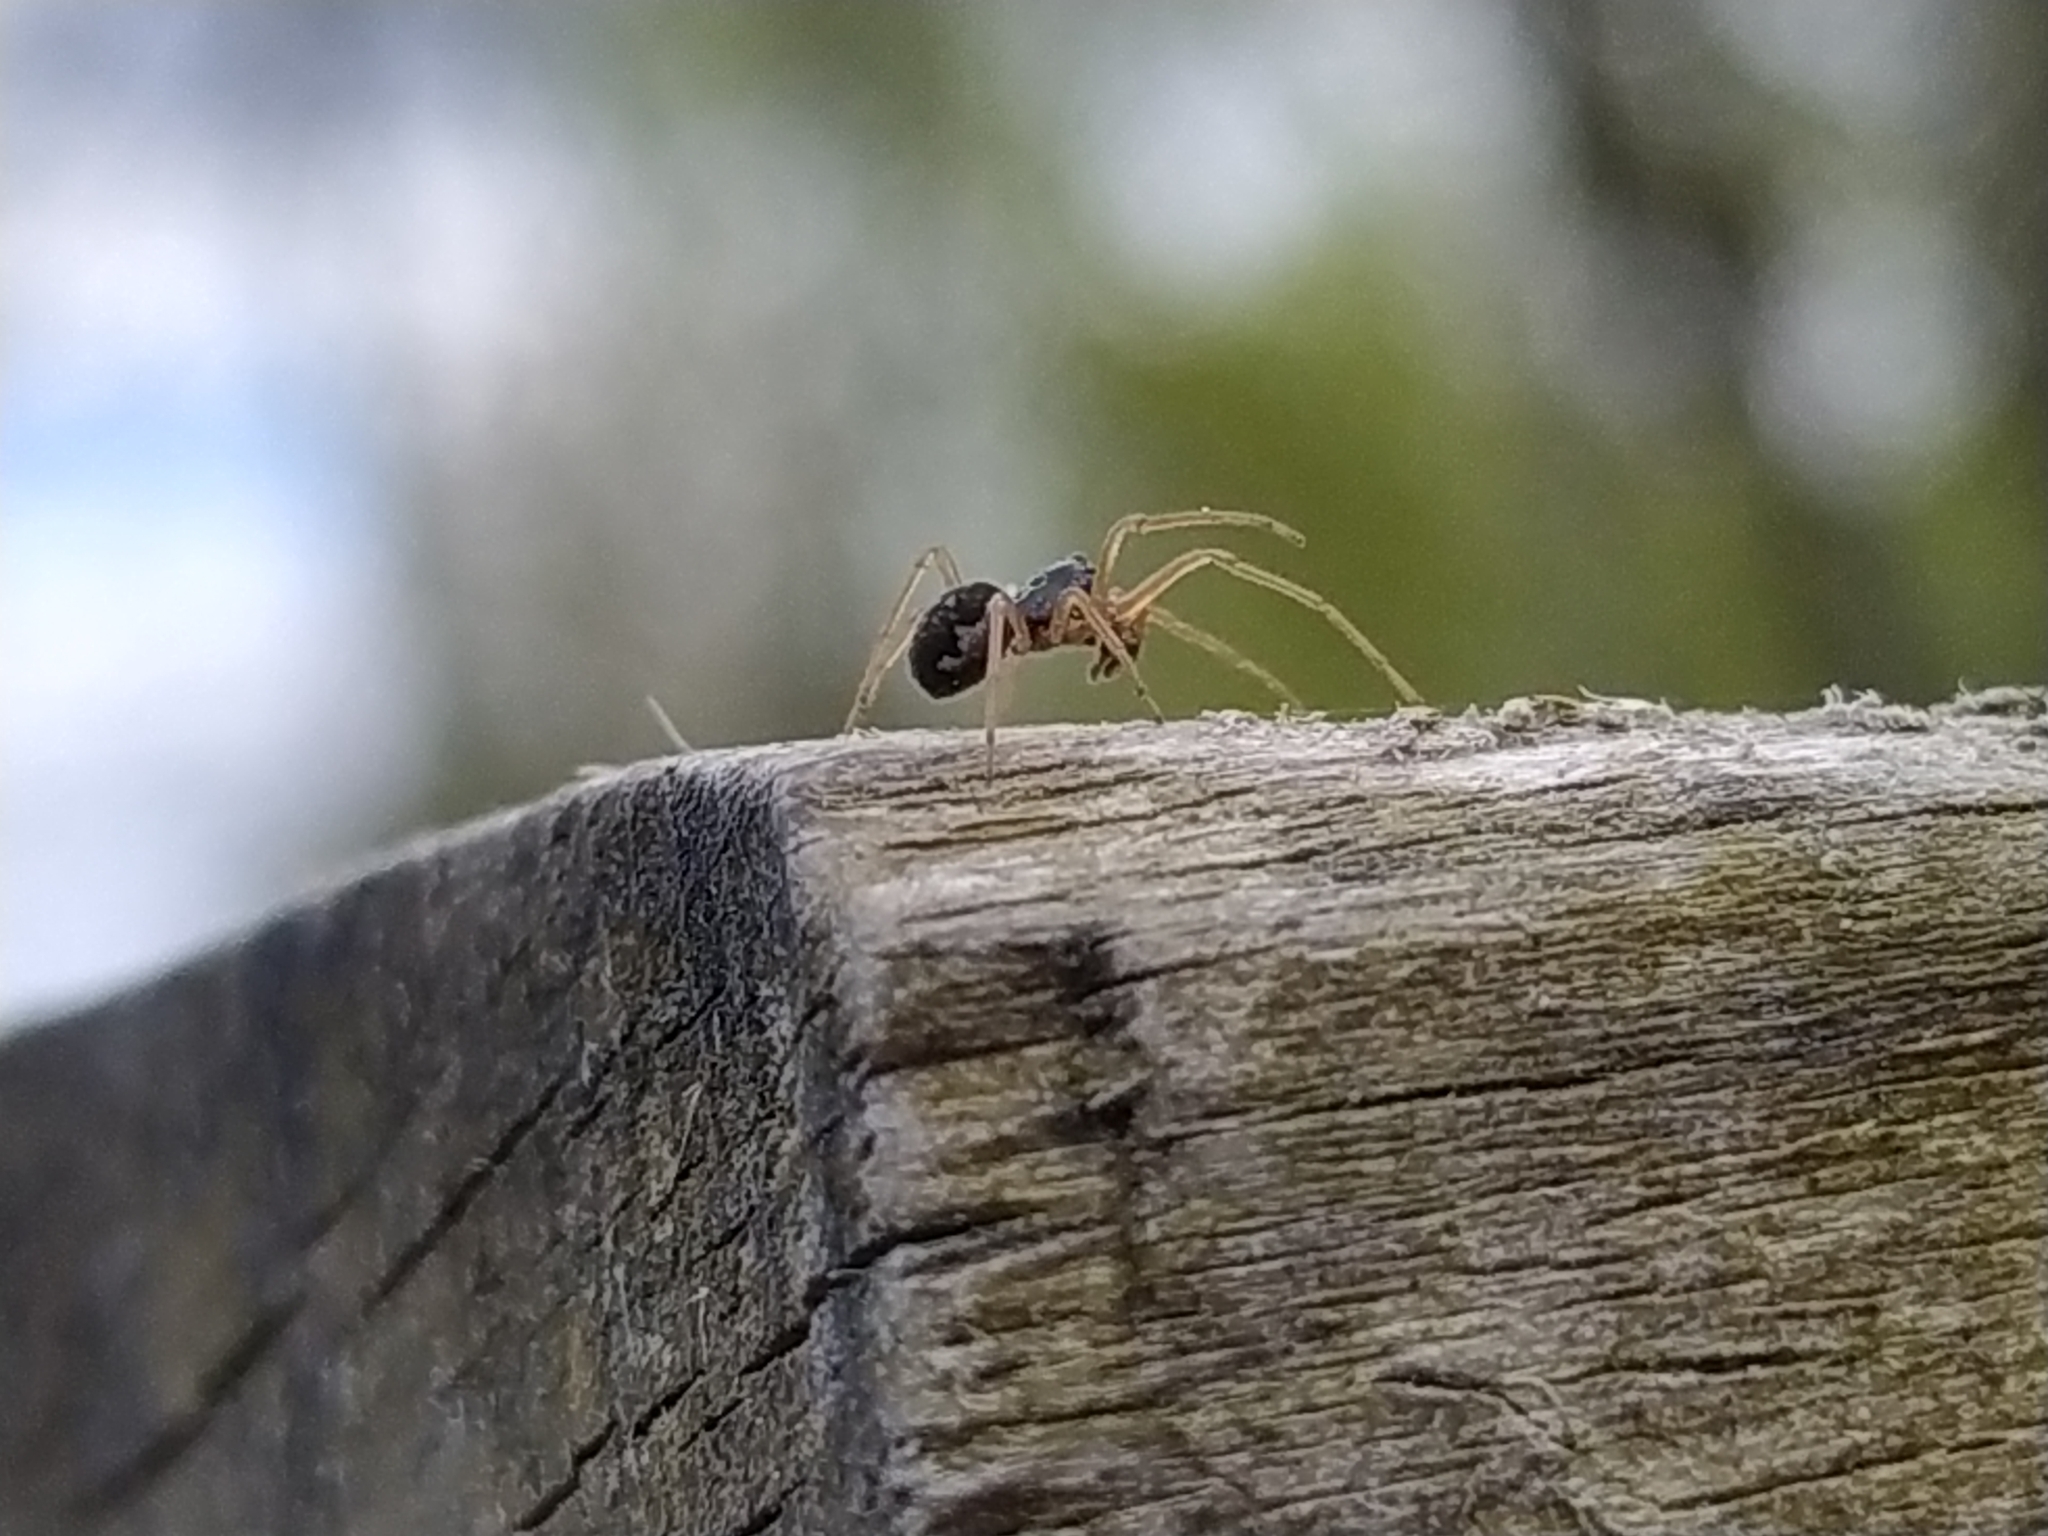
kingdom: Animalia
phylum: Arthropoda
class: Arachnida
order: Araneae
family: Tetragnathidae
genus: Pachygnatha
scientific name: Pachygnatha degeeri
